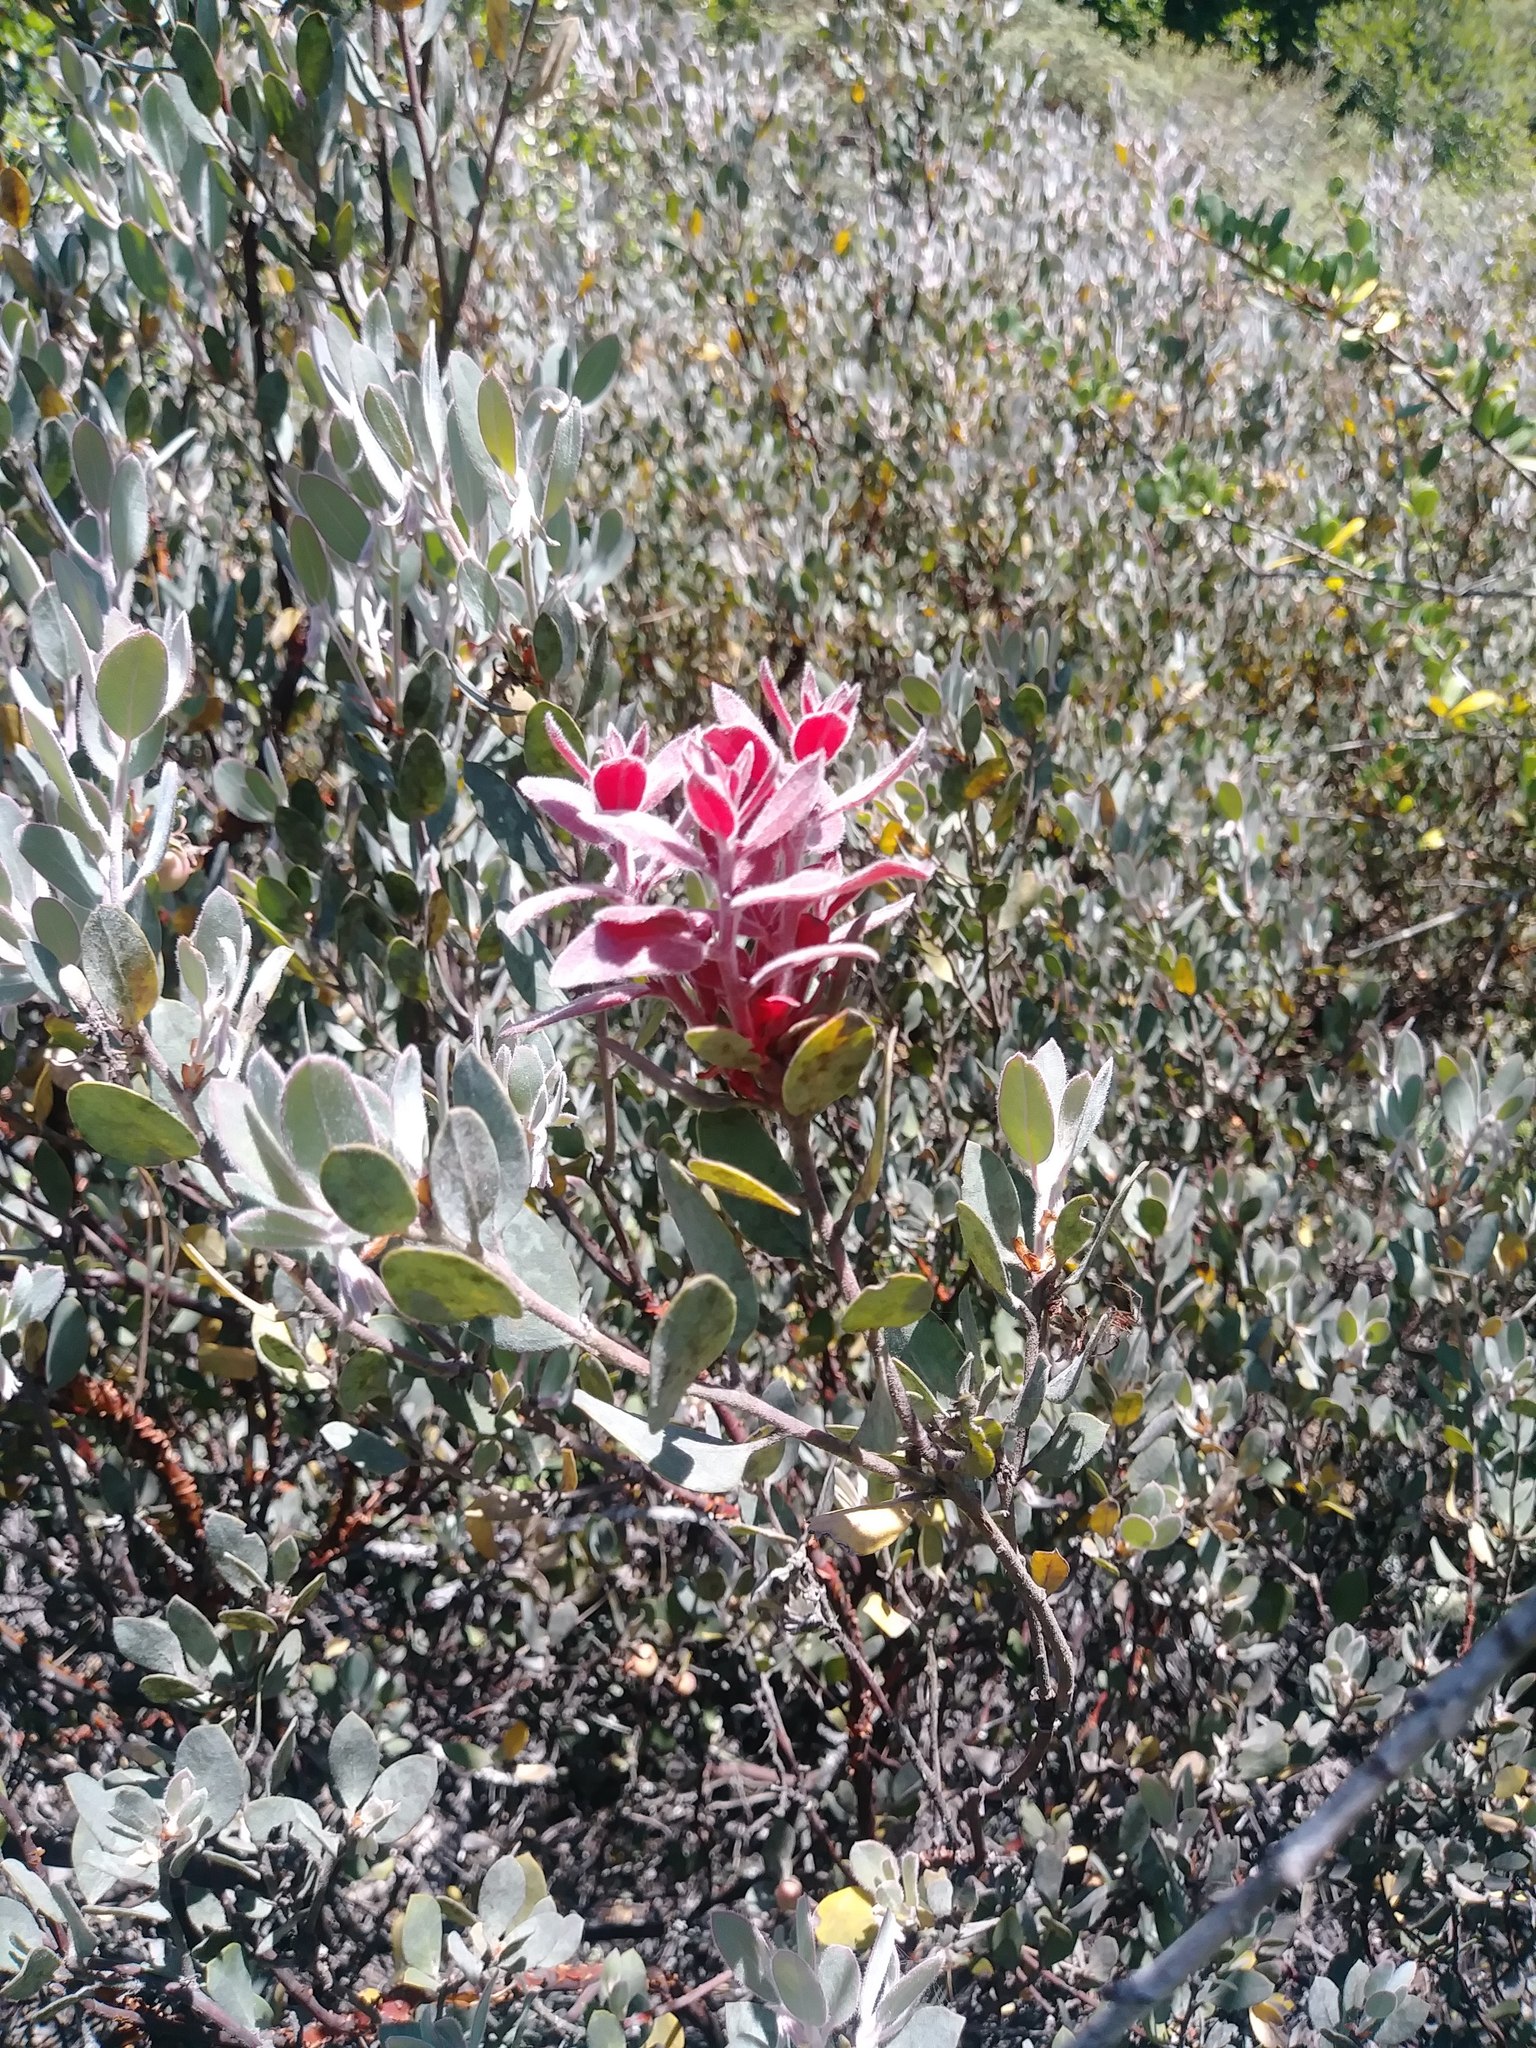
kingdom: Plantae
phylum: Tracheophyta
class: Magnoliopsida
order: Ericales
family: Ericaceae
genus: Arctostaphylos
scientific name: Arctostaphylos silvicola
